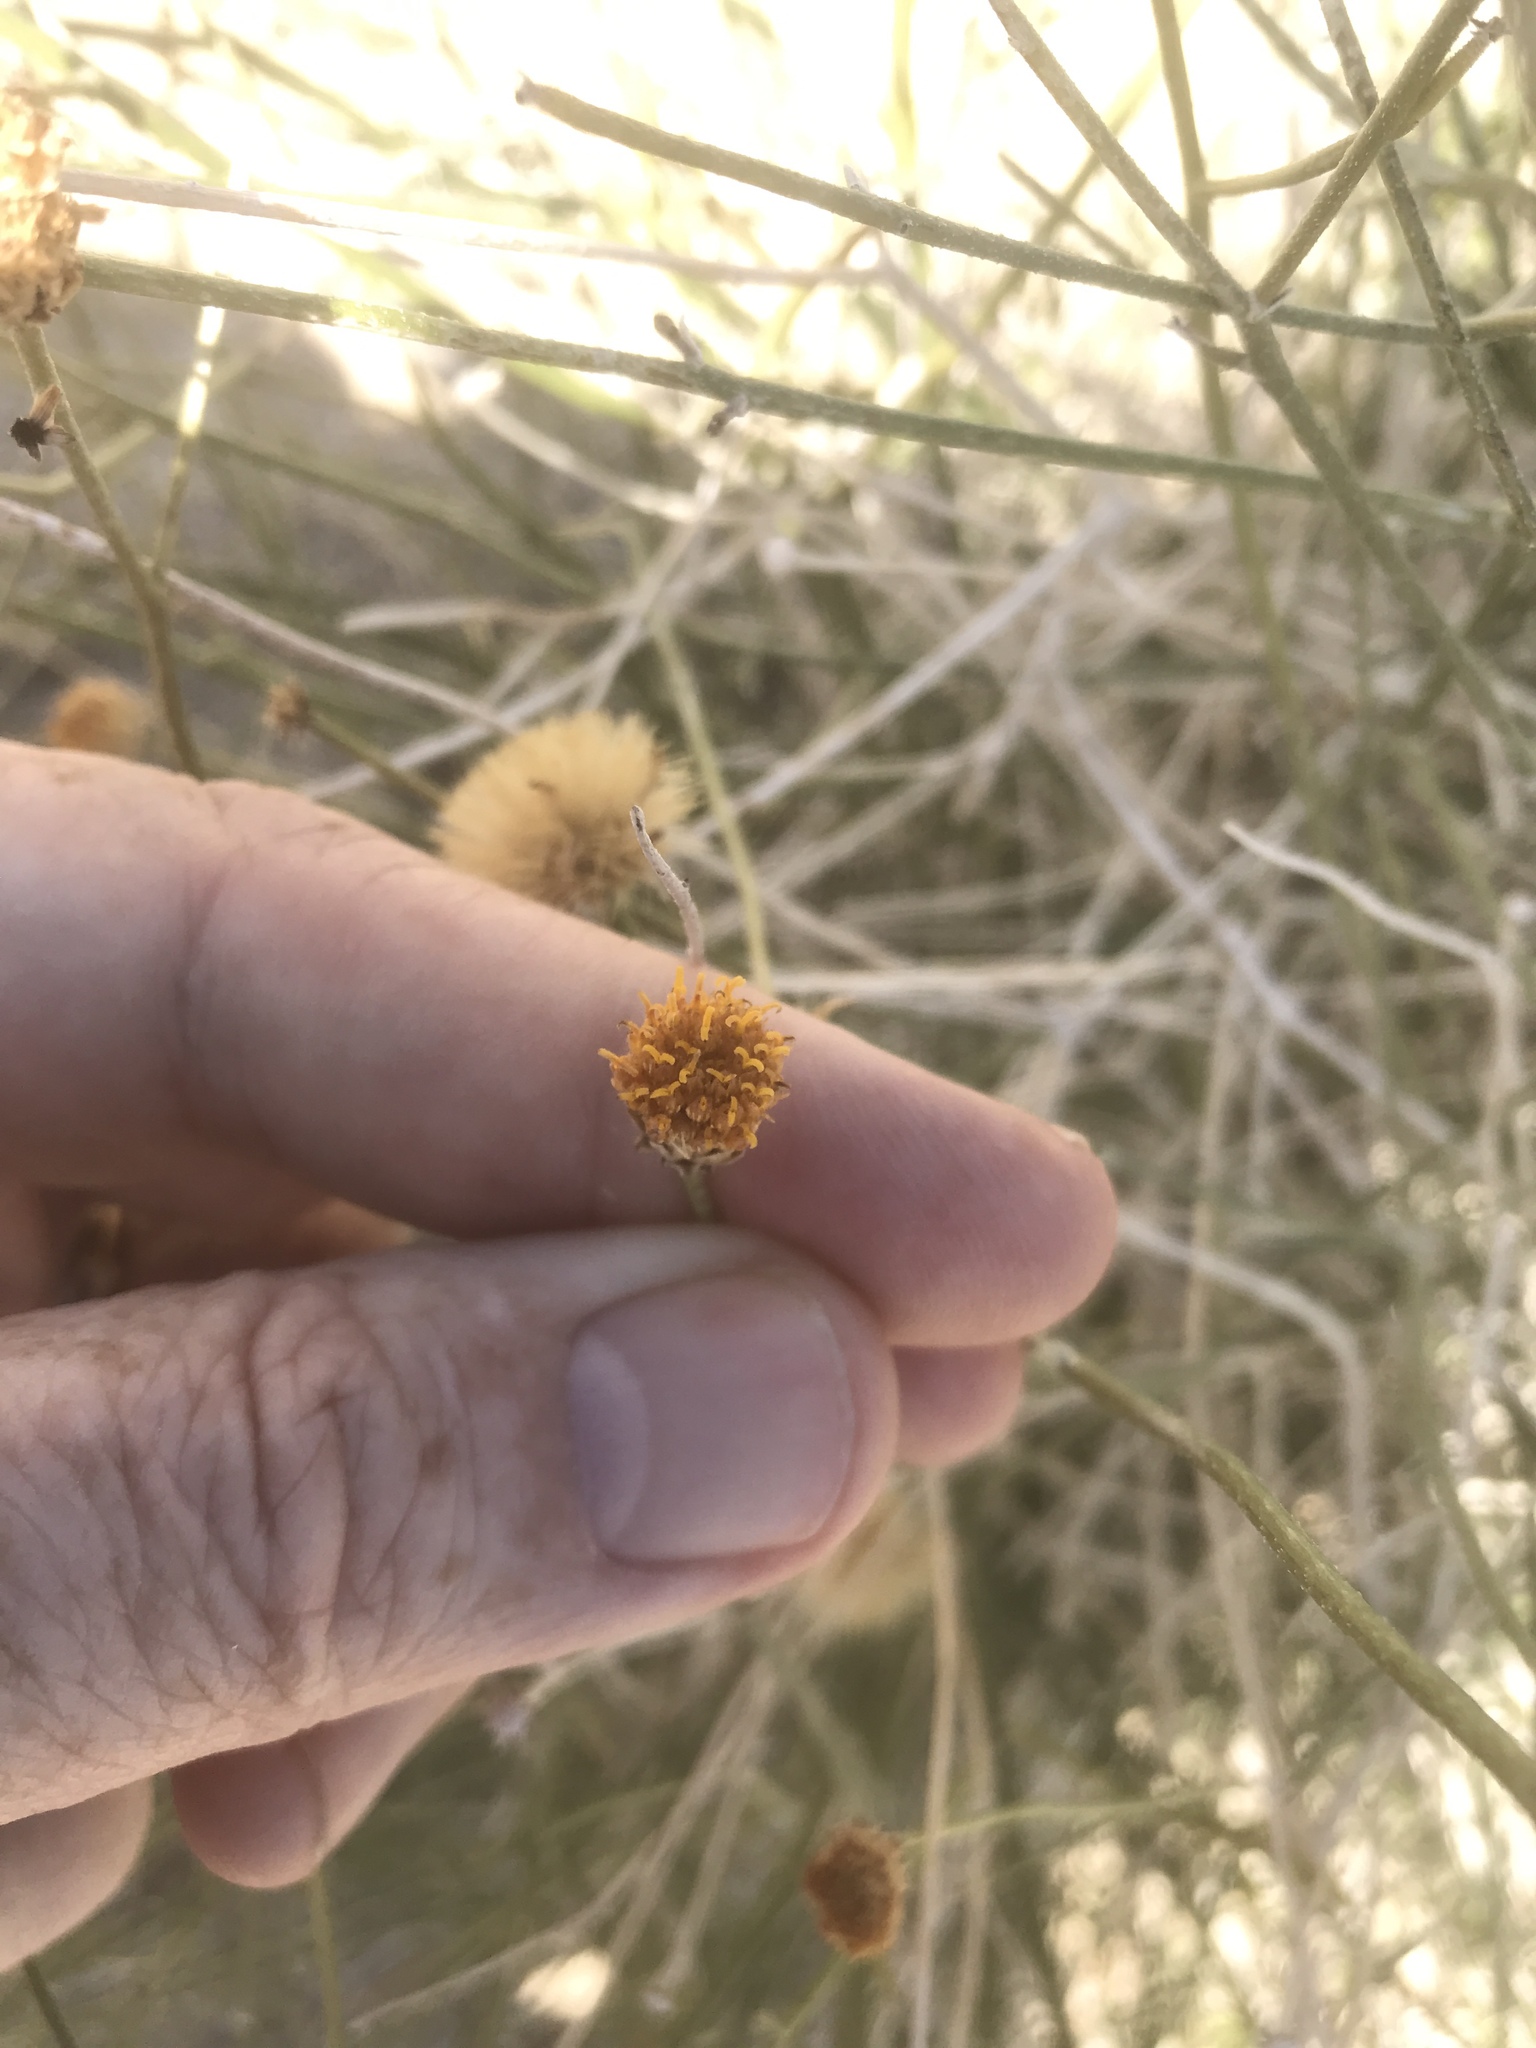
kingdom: Plantae
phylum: Tracheophyta
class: Magnoliopsida
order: Asterales
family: Asteraceae
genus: Bebbia
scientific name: Bebbia juncea
